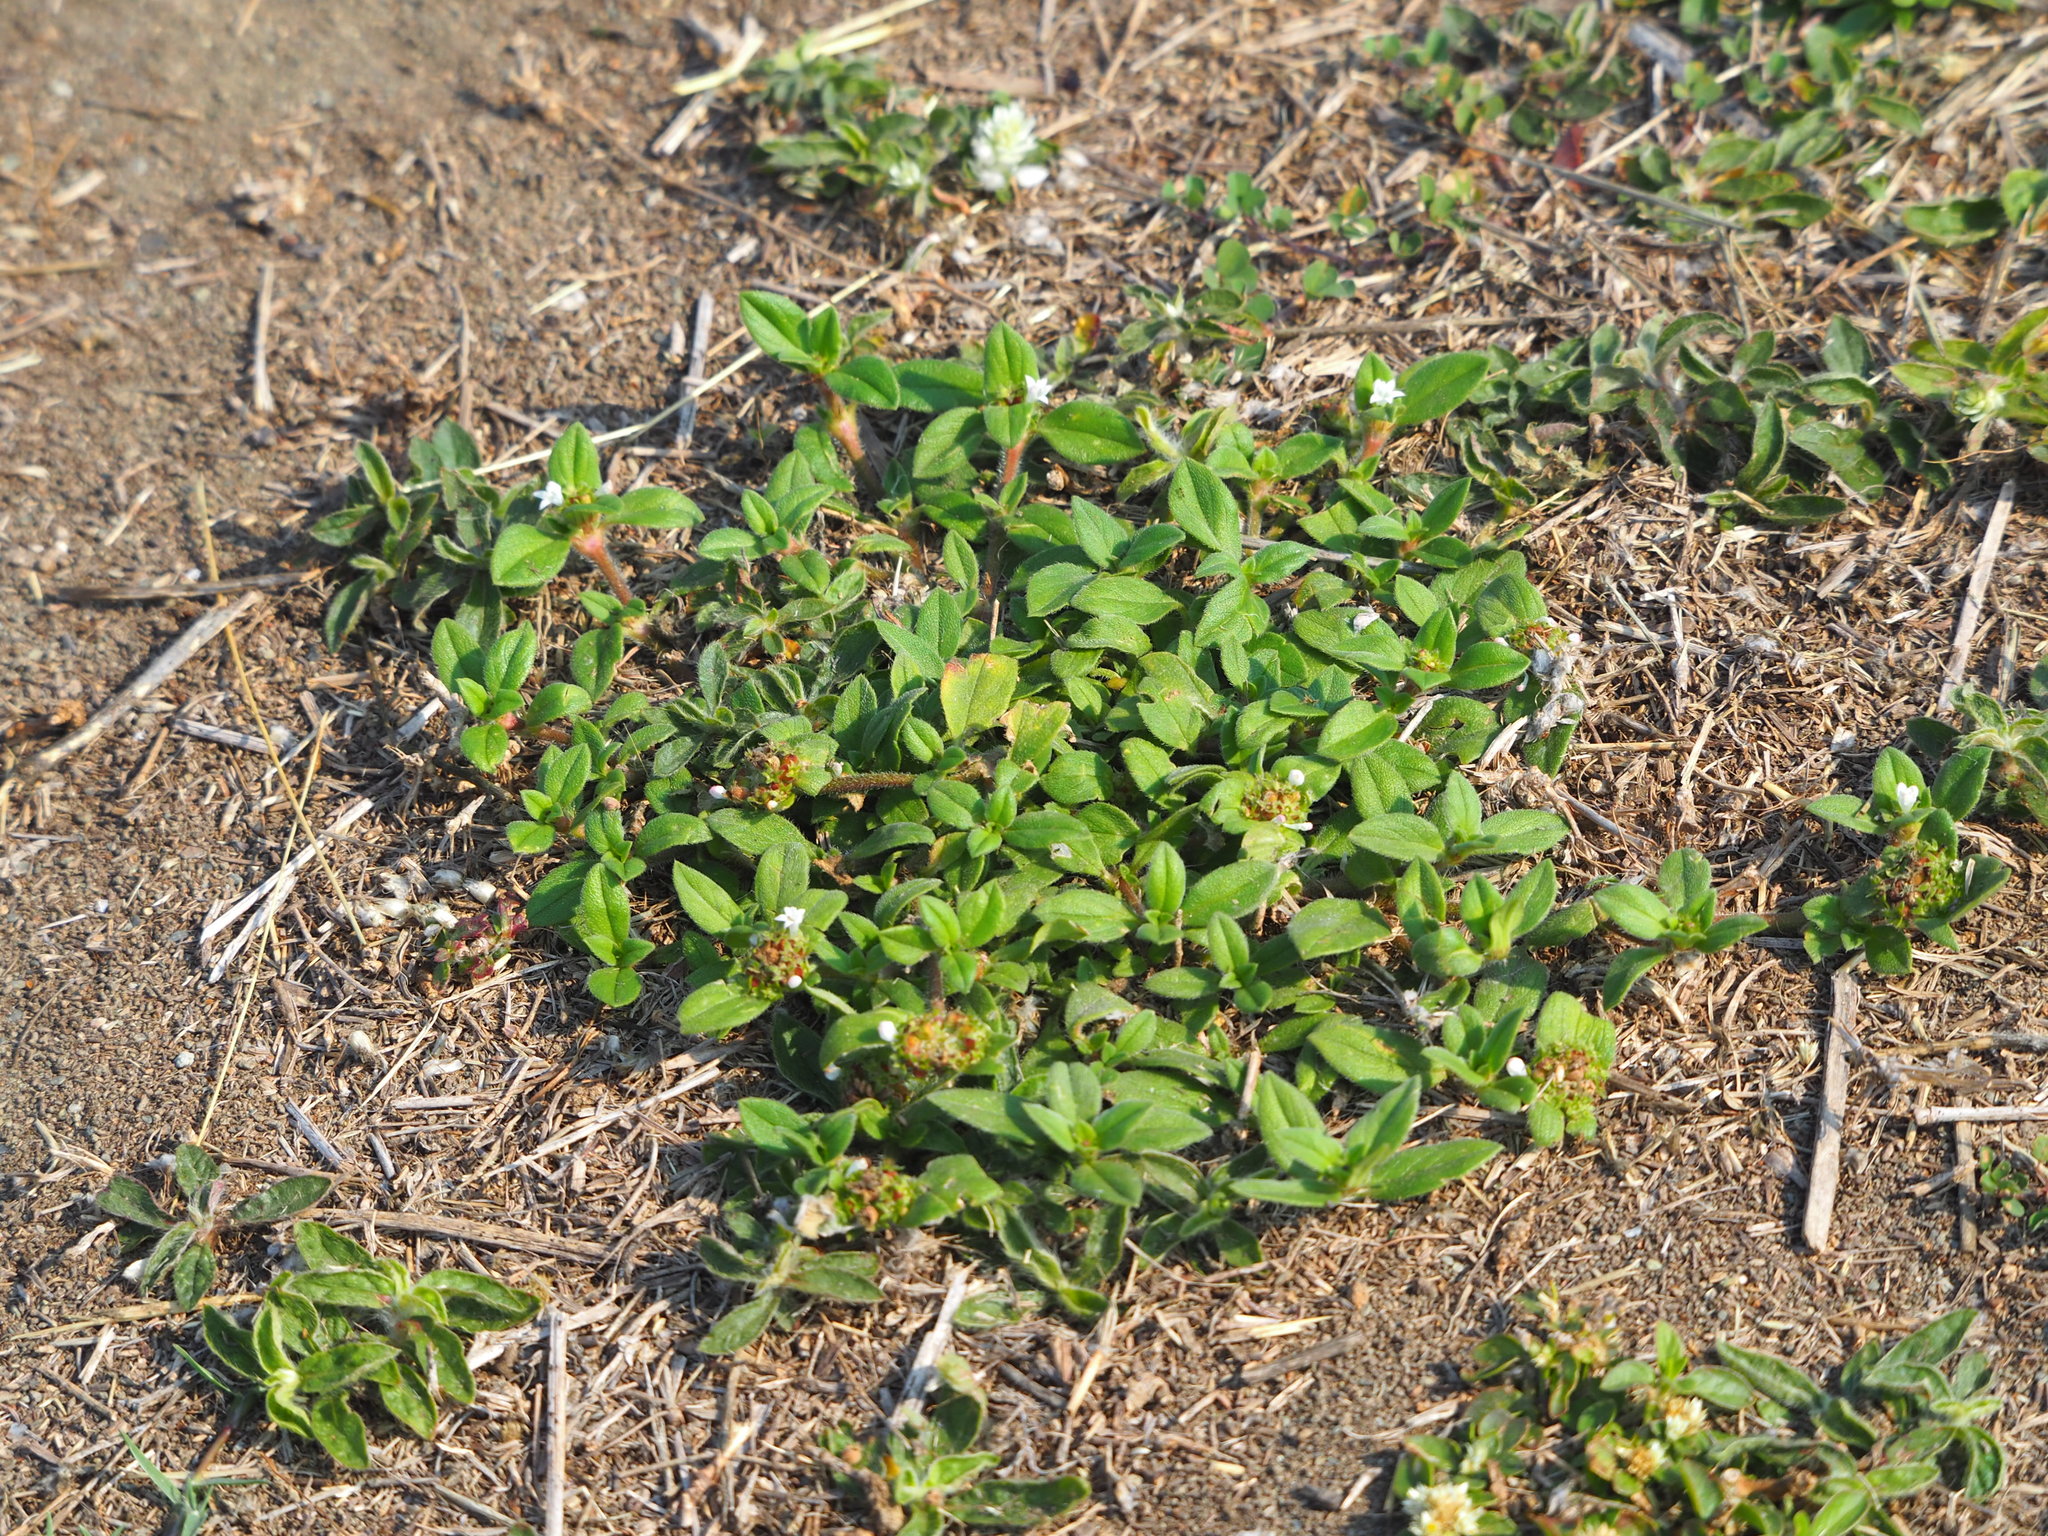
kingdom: Plantae
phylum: Tracheophyta
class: Magnoliopsida
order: Gentianales
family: Rubiaceae
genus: Richardia
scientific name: Richardia brasiliensis
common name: Tropical mexican clover
